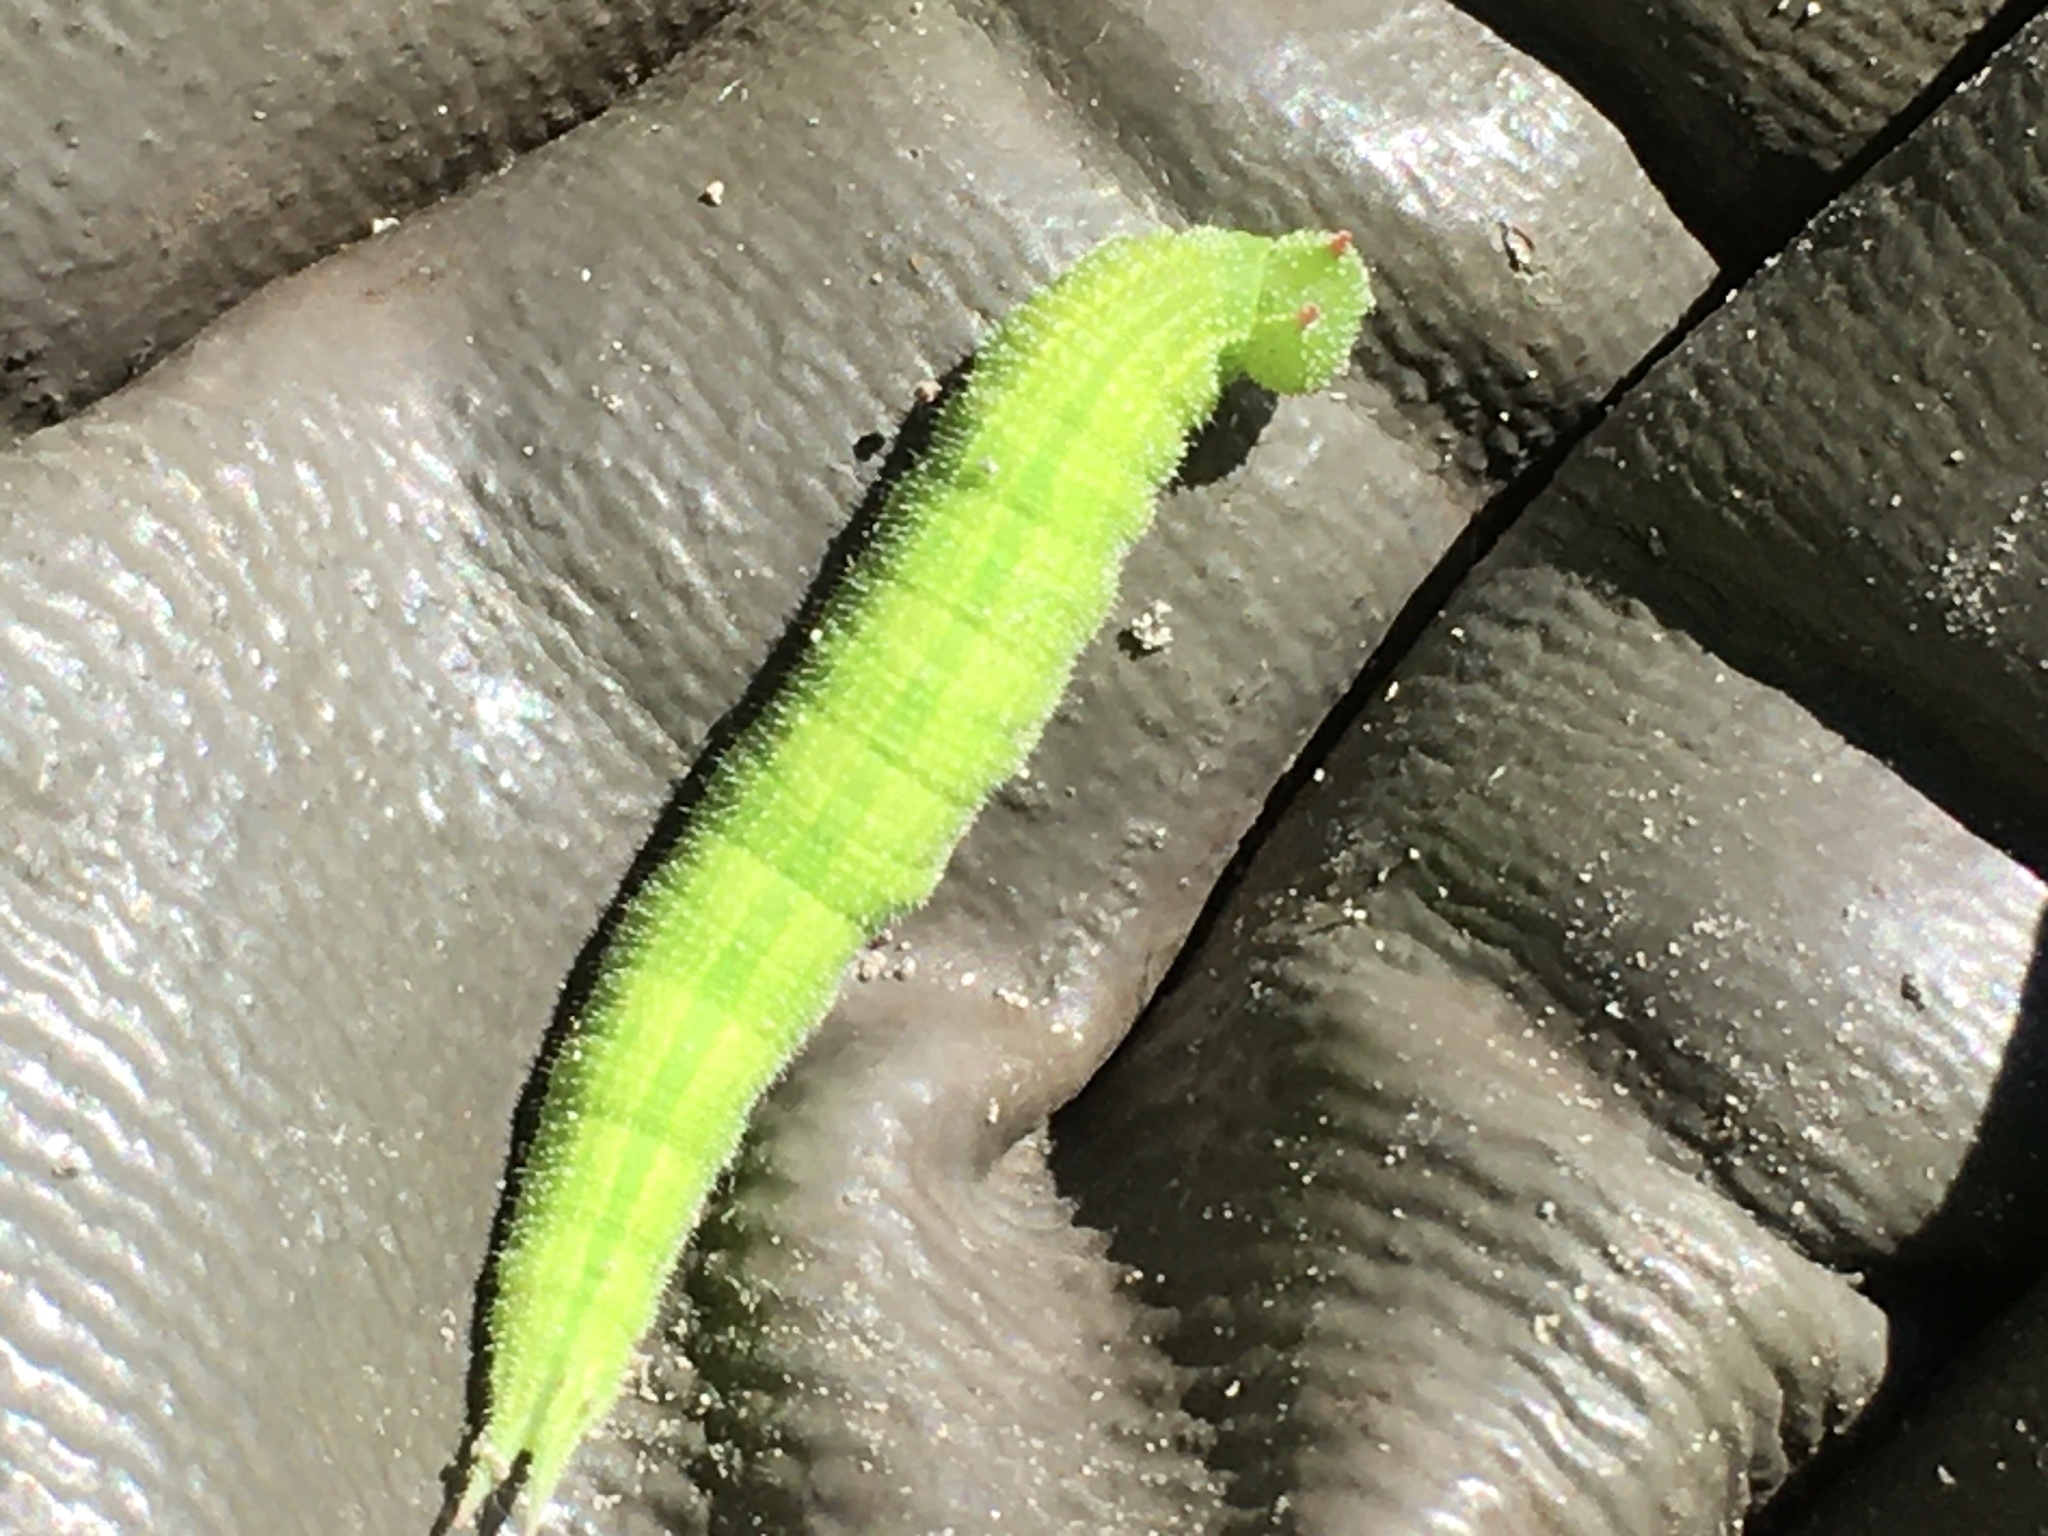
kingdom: Animalia
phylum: Arthropoda
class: Insecta
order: Lepidoptera
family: Nymphalidae
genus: Lethe
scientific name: Lethe anthedon
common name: Northern pearly-eye
